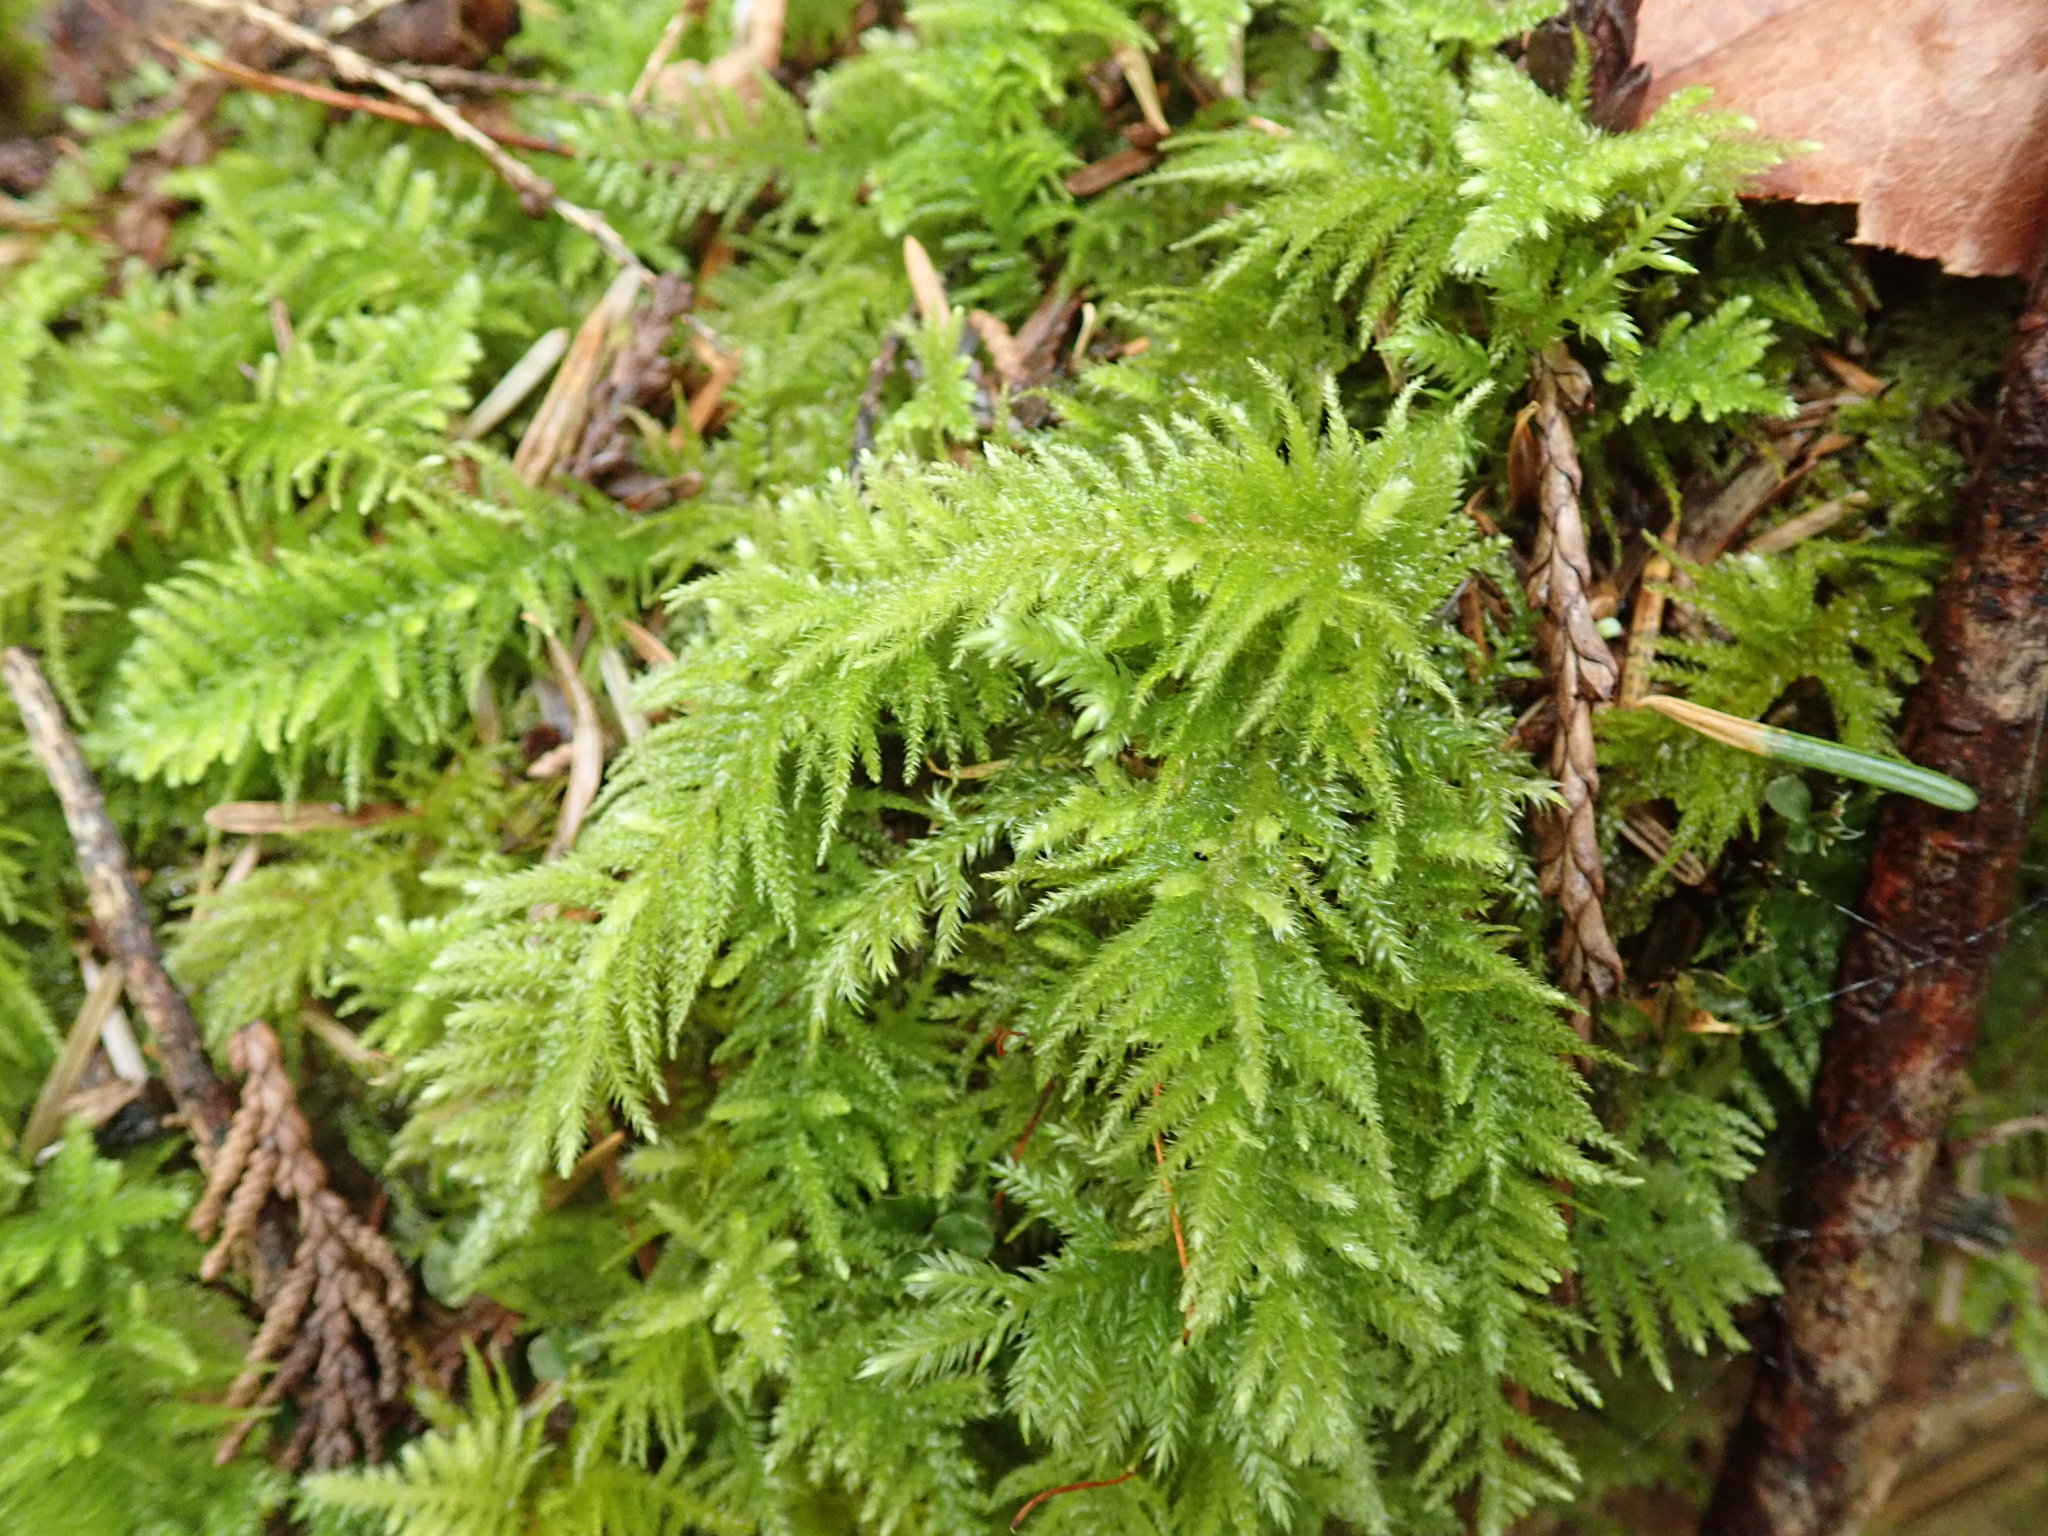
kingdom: Plantae
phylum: Bryophyta
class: Bryopsida
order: Hypnales
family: Brachytheciaceae
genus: Kindbergia
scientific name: Kindbergia oregana
